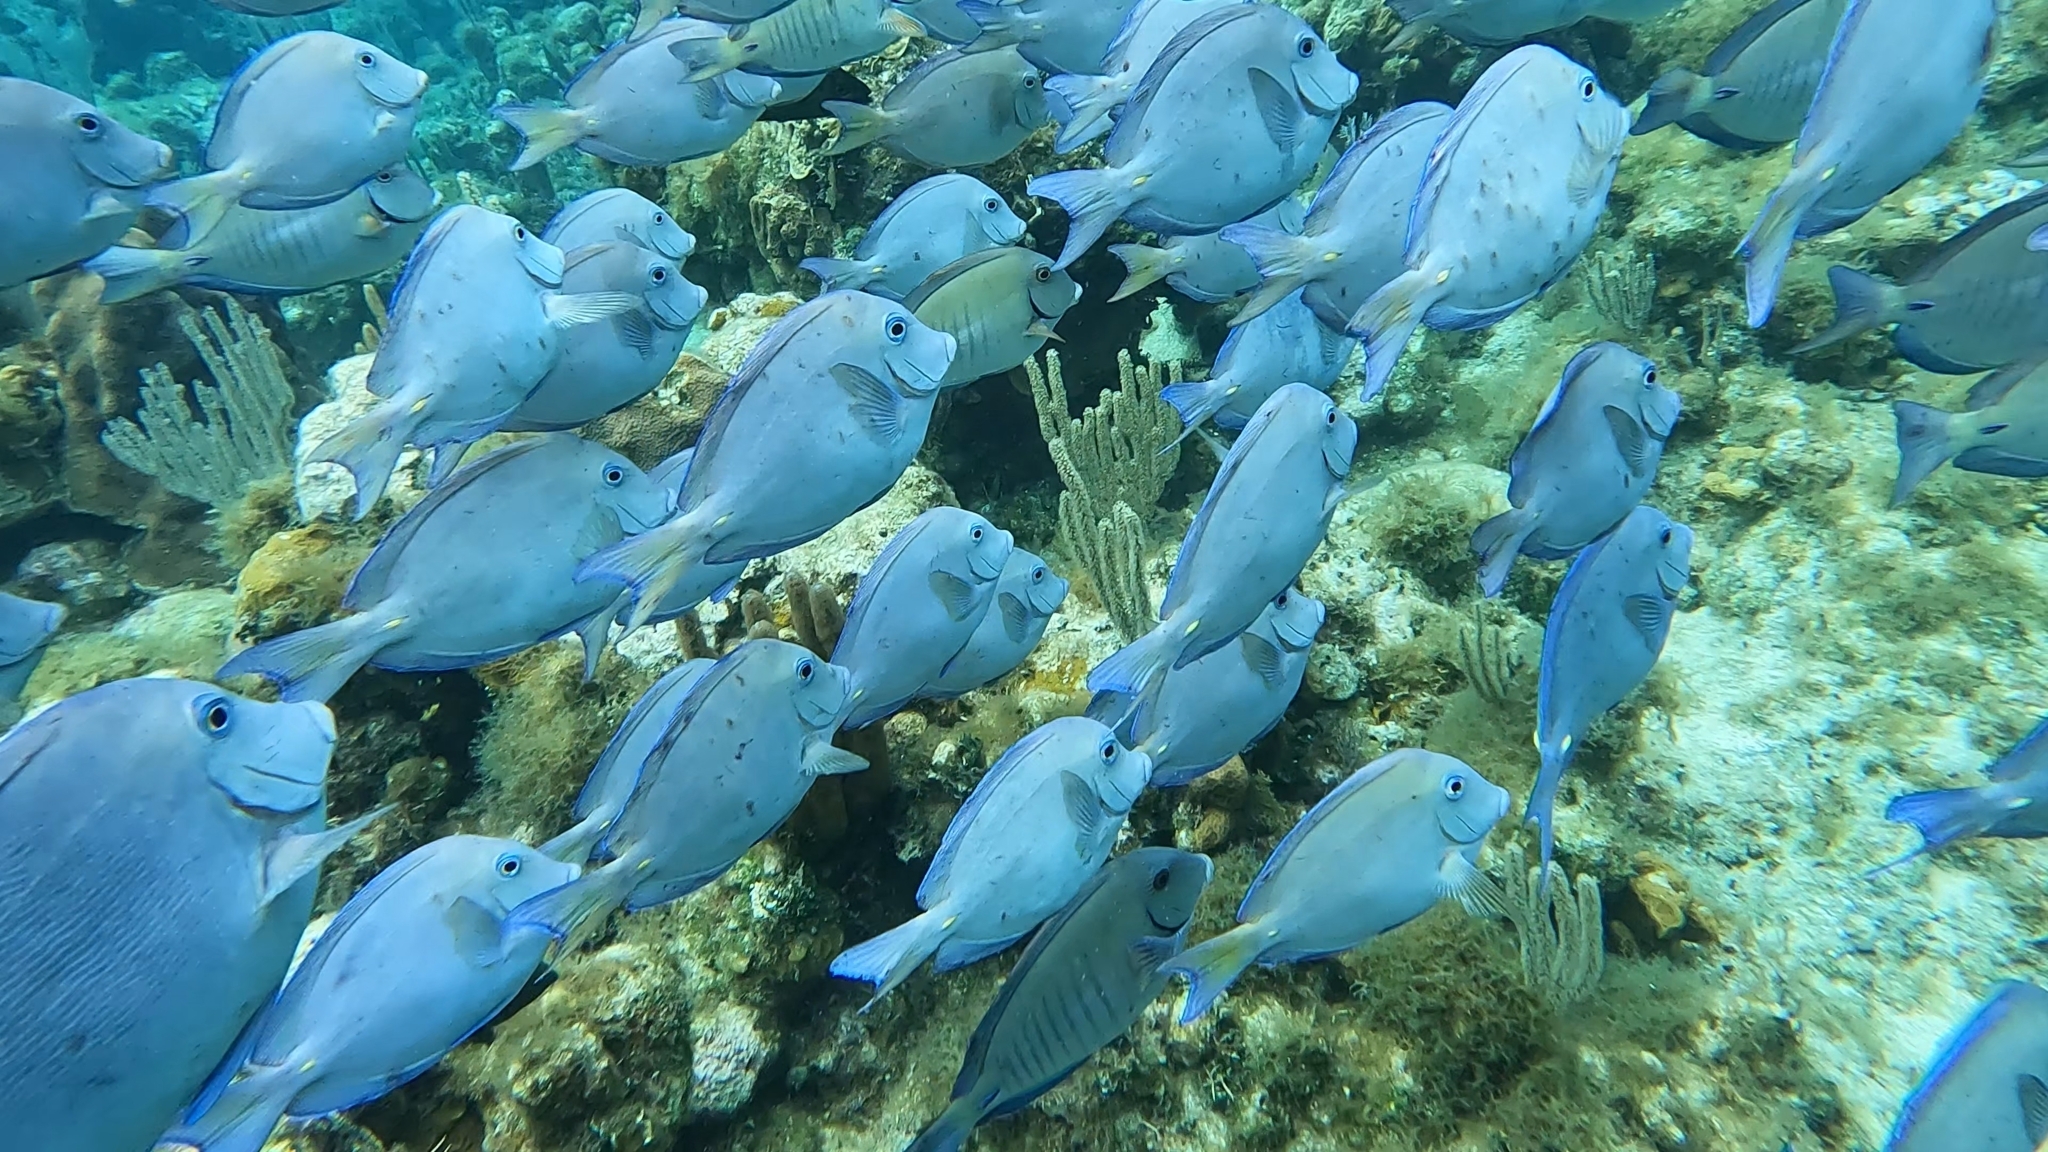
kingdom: Animalia
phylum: Chordata
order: Perciformes
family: Acanthuridae
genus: Acanthurus
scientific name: Acanthurus coeruleus
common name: Blue tang
